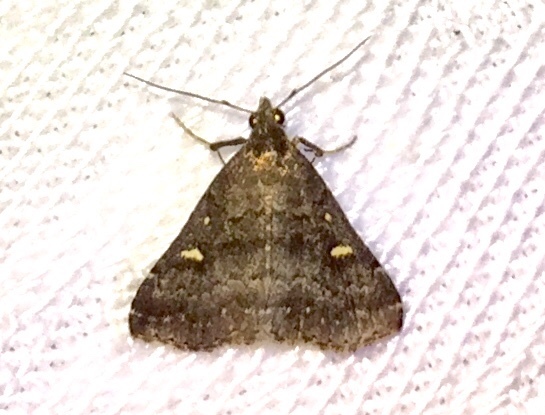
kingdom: Animalia
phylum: Arthropoda
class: Insecta
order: Lepidoptera
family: Erebidae
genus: Tetanolita
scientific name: Tetanolita mynesalis
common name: Smoky tetanolita moth
